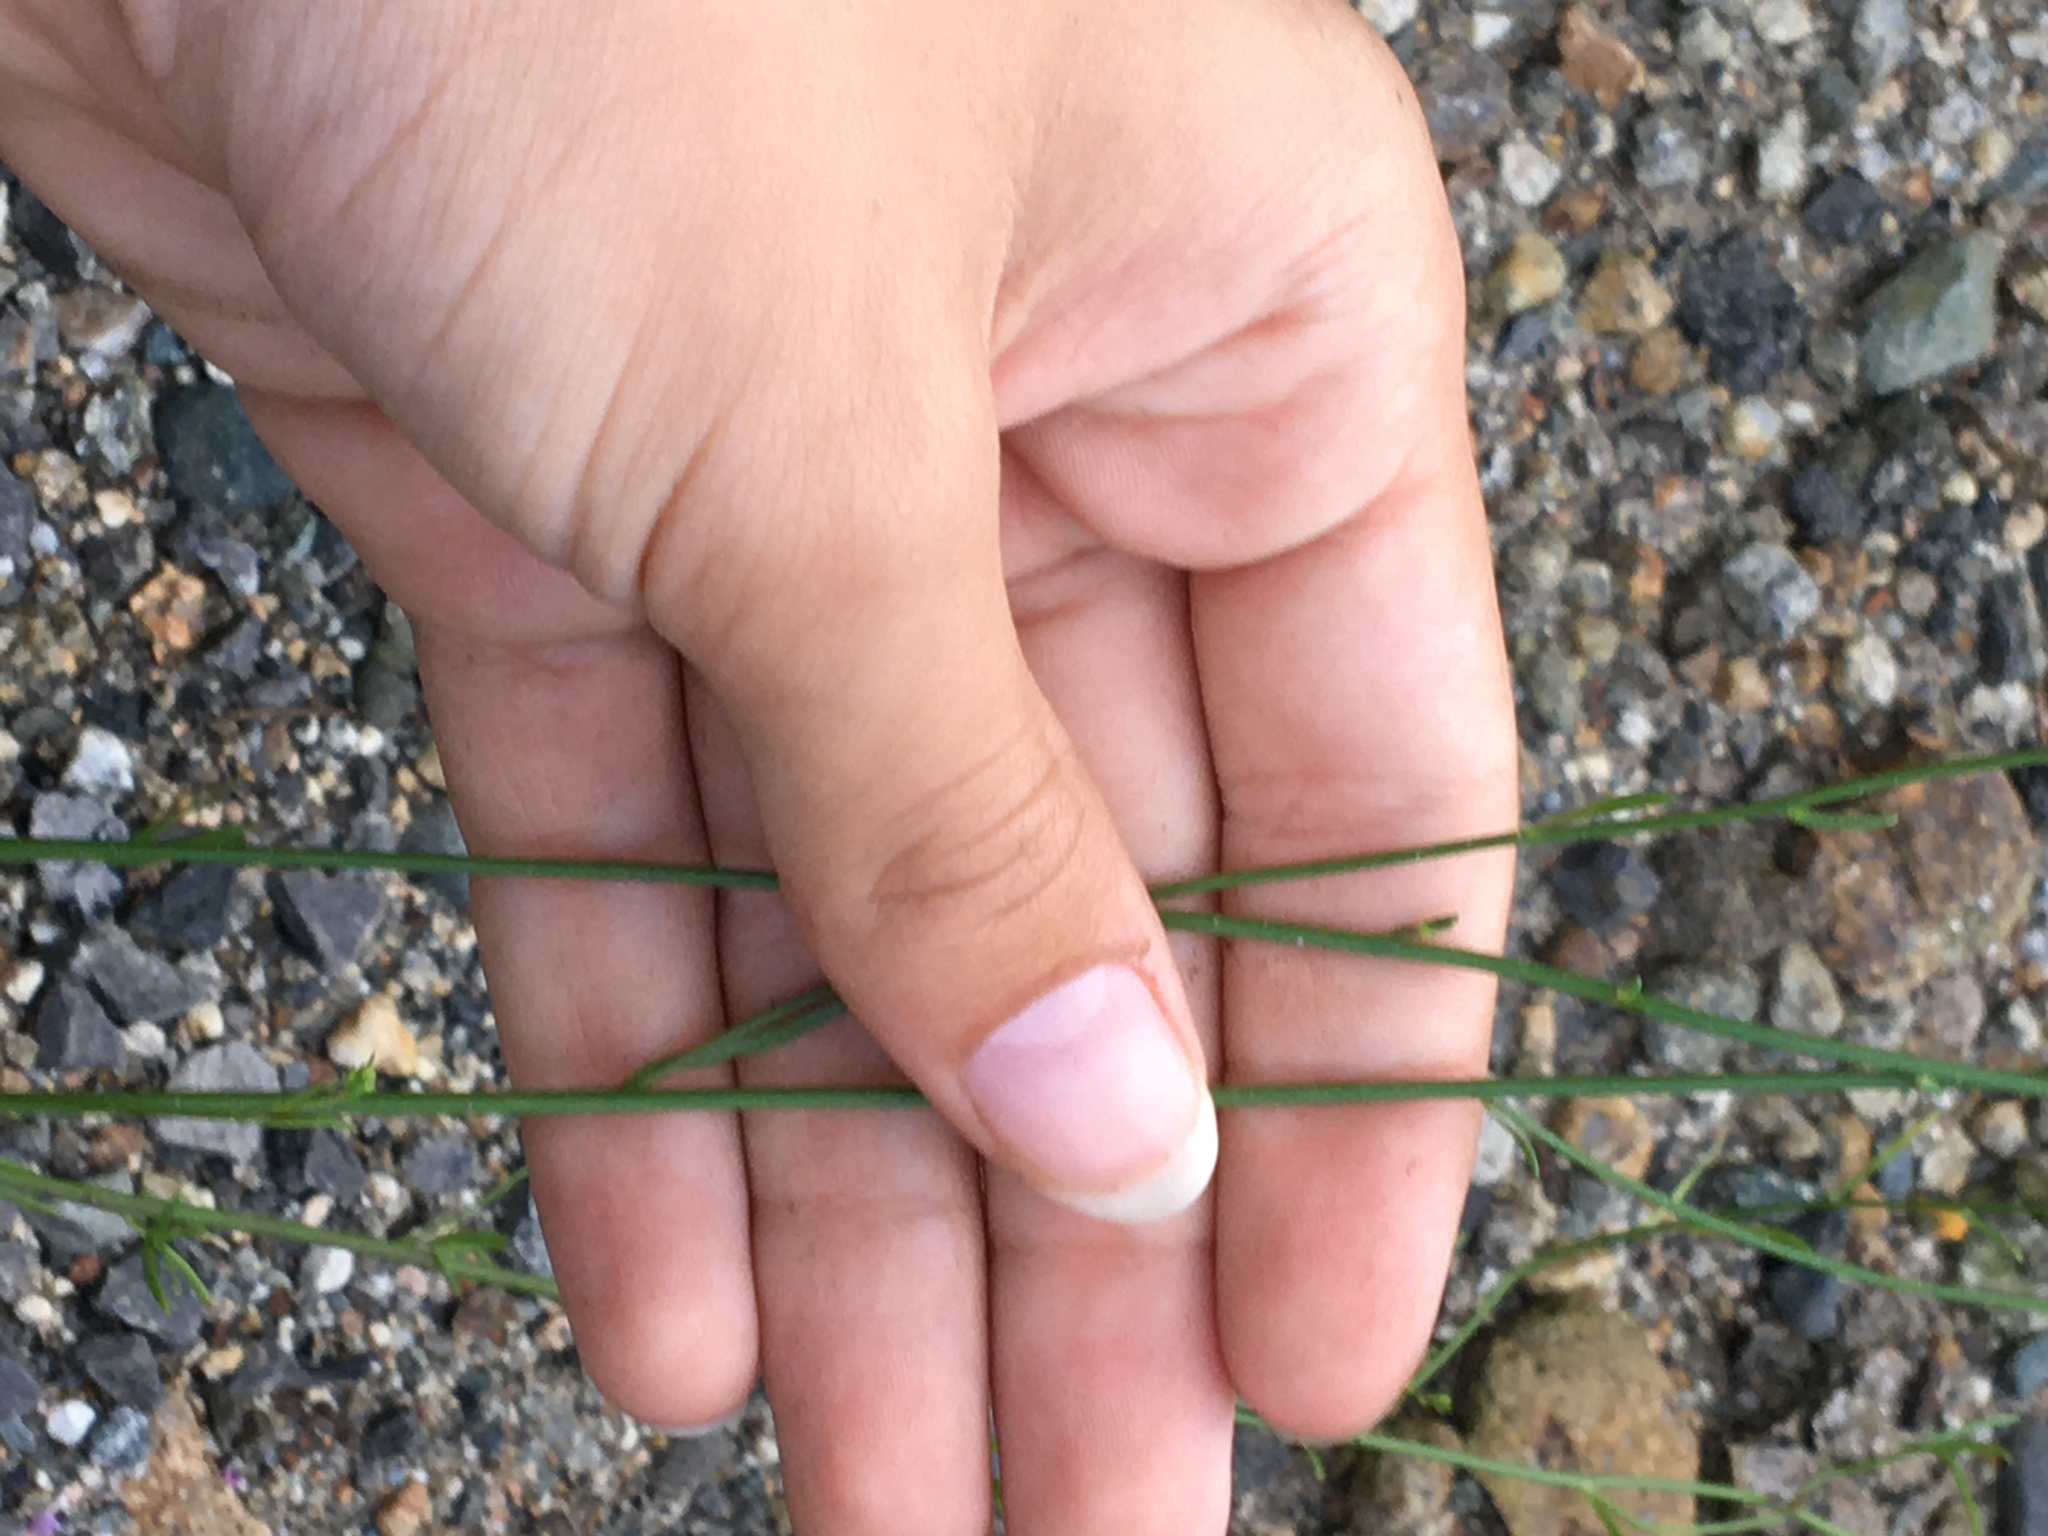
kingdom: Plantae
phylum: Tracheophyta
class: Magnoliopsida
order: Lamiales
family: Plantaginaceae
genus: Nuttallanthus
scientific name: Nuttallanthus canadensis
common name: Blue toadflax
